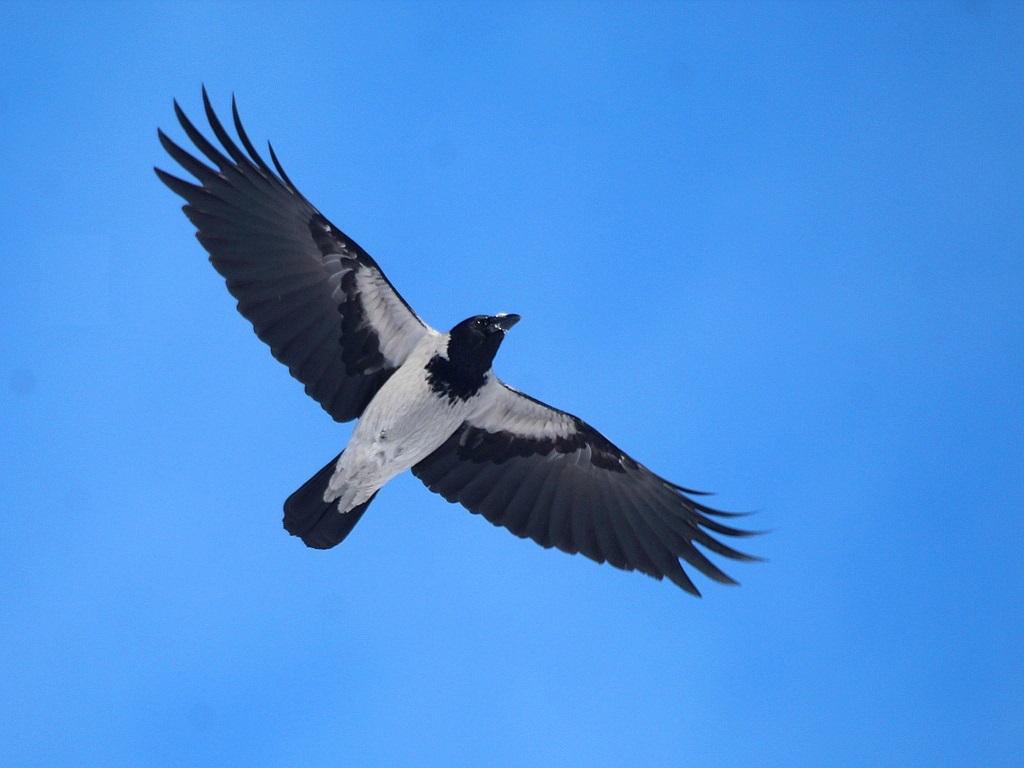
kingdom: Animalia
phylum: Chordata
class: Aves
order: Passeriformes
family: Corvidae
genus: Corvus
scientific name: Corvus cornix
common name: Hooded crow
